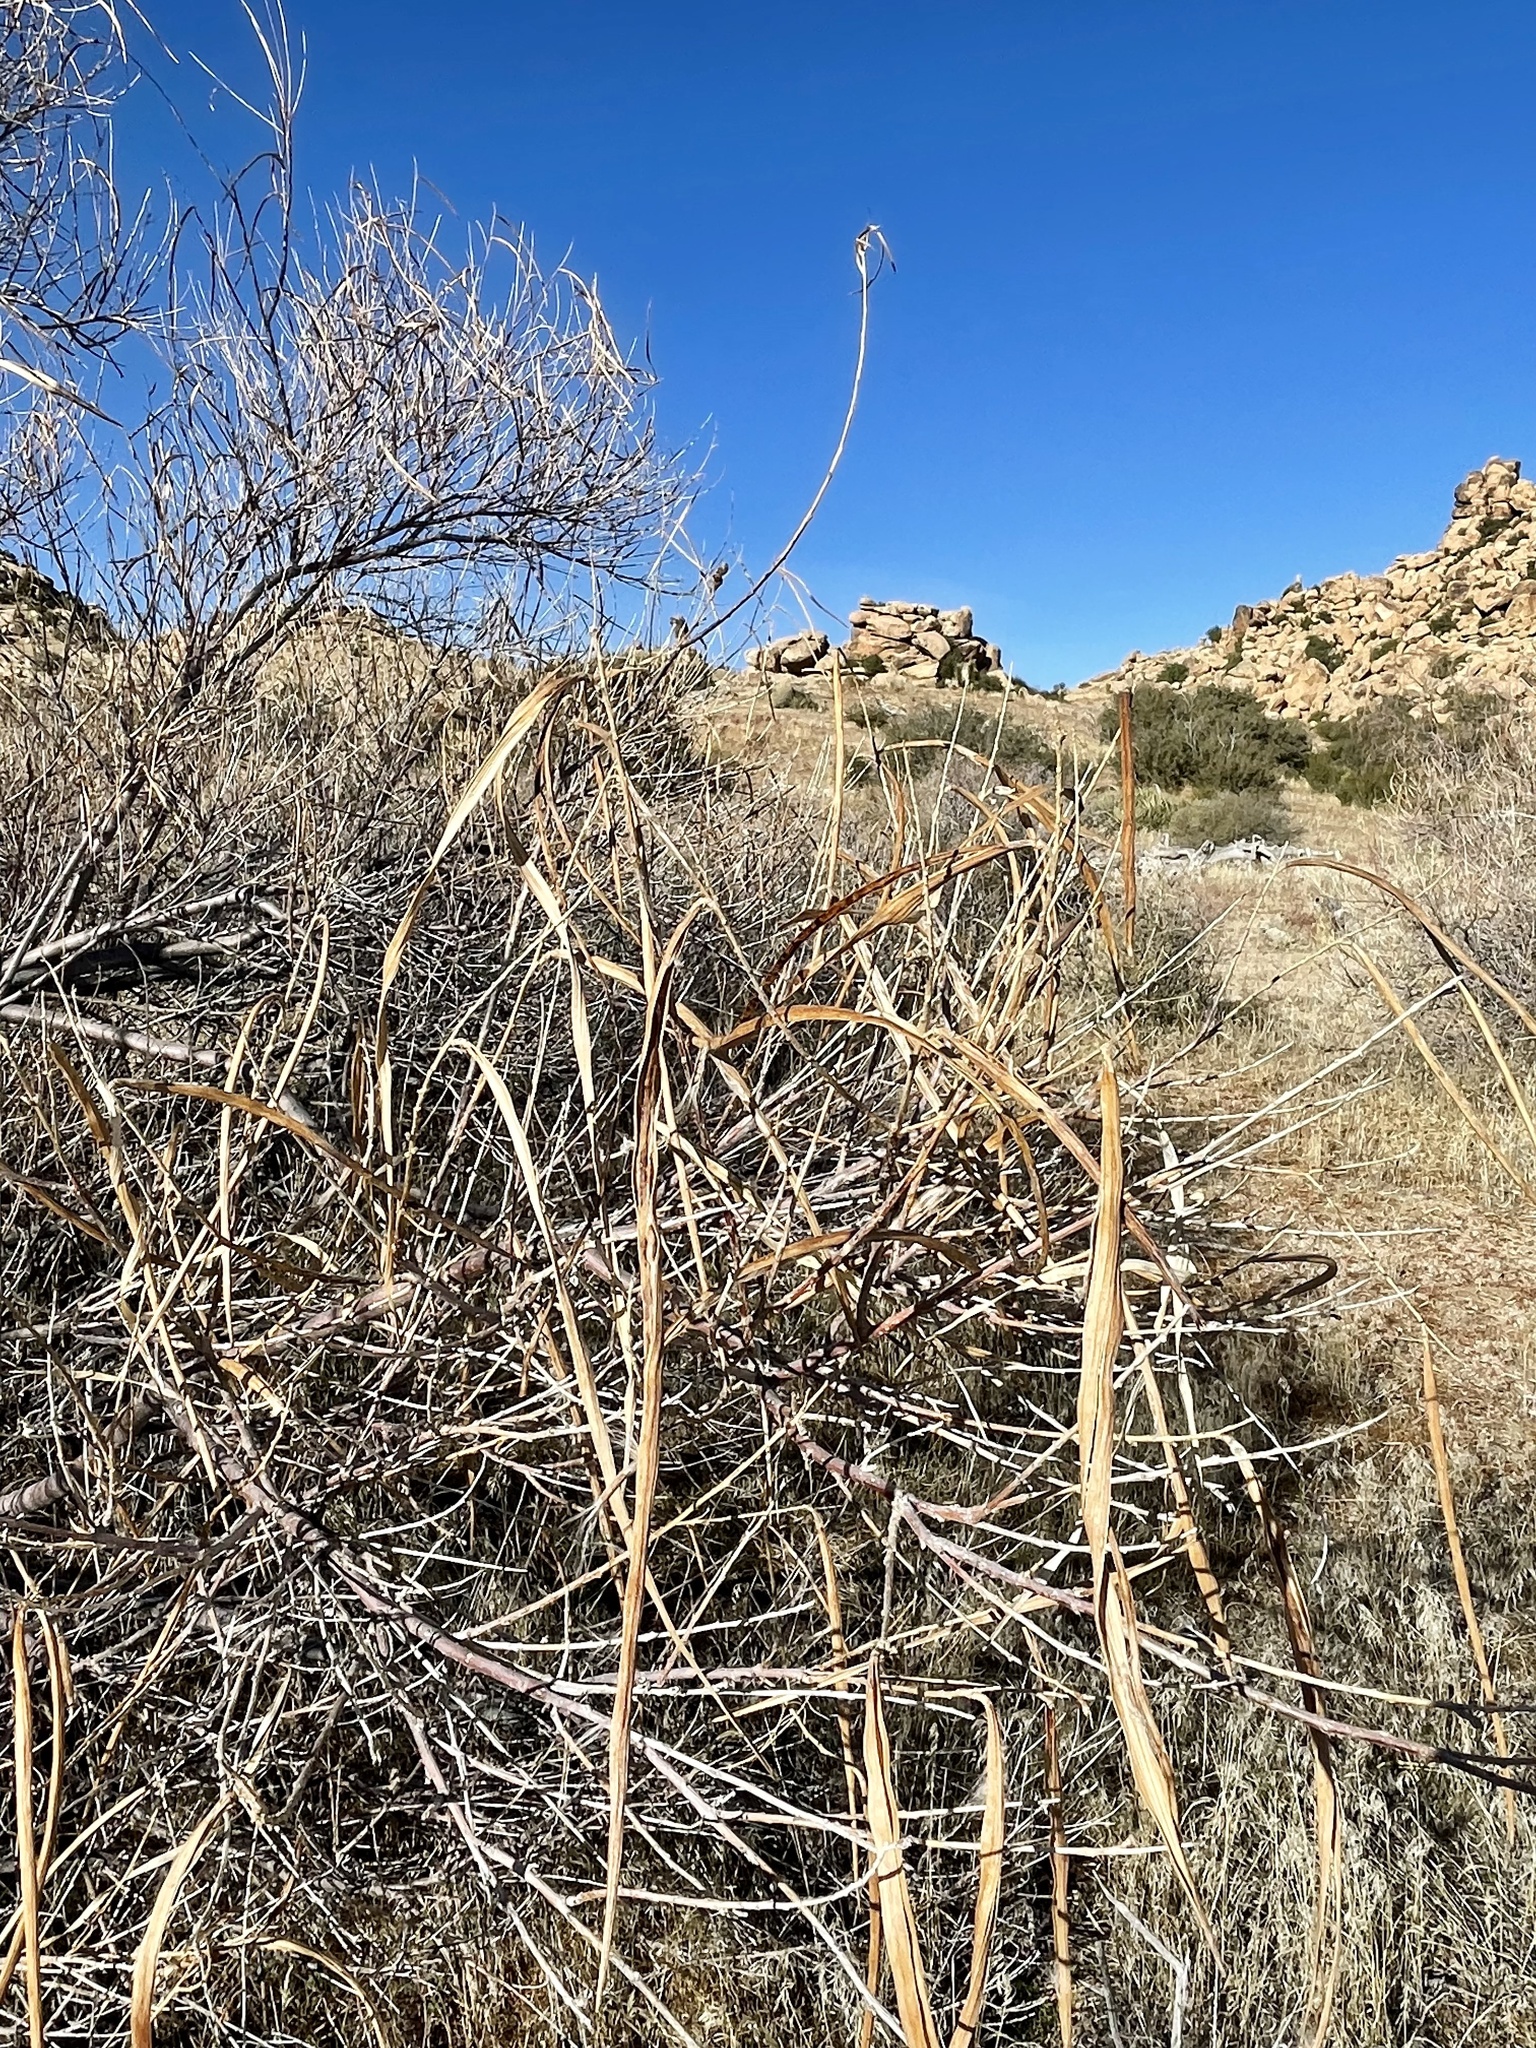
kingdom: Plantae
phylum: Tracheophyta
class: Magnoliopsida
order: Lamiales
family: Bignoniaceae
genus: Chilopsis
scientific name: Chilopsis linearis
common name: Desert-willow
